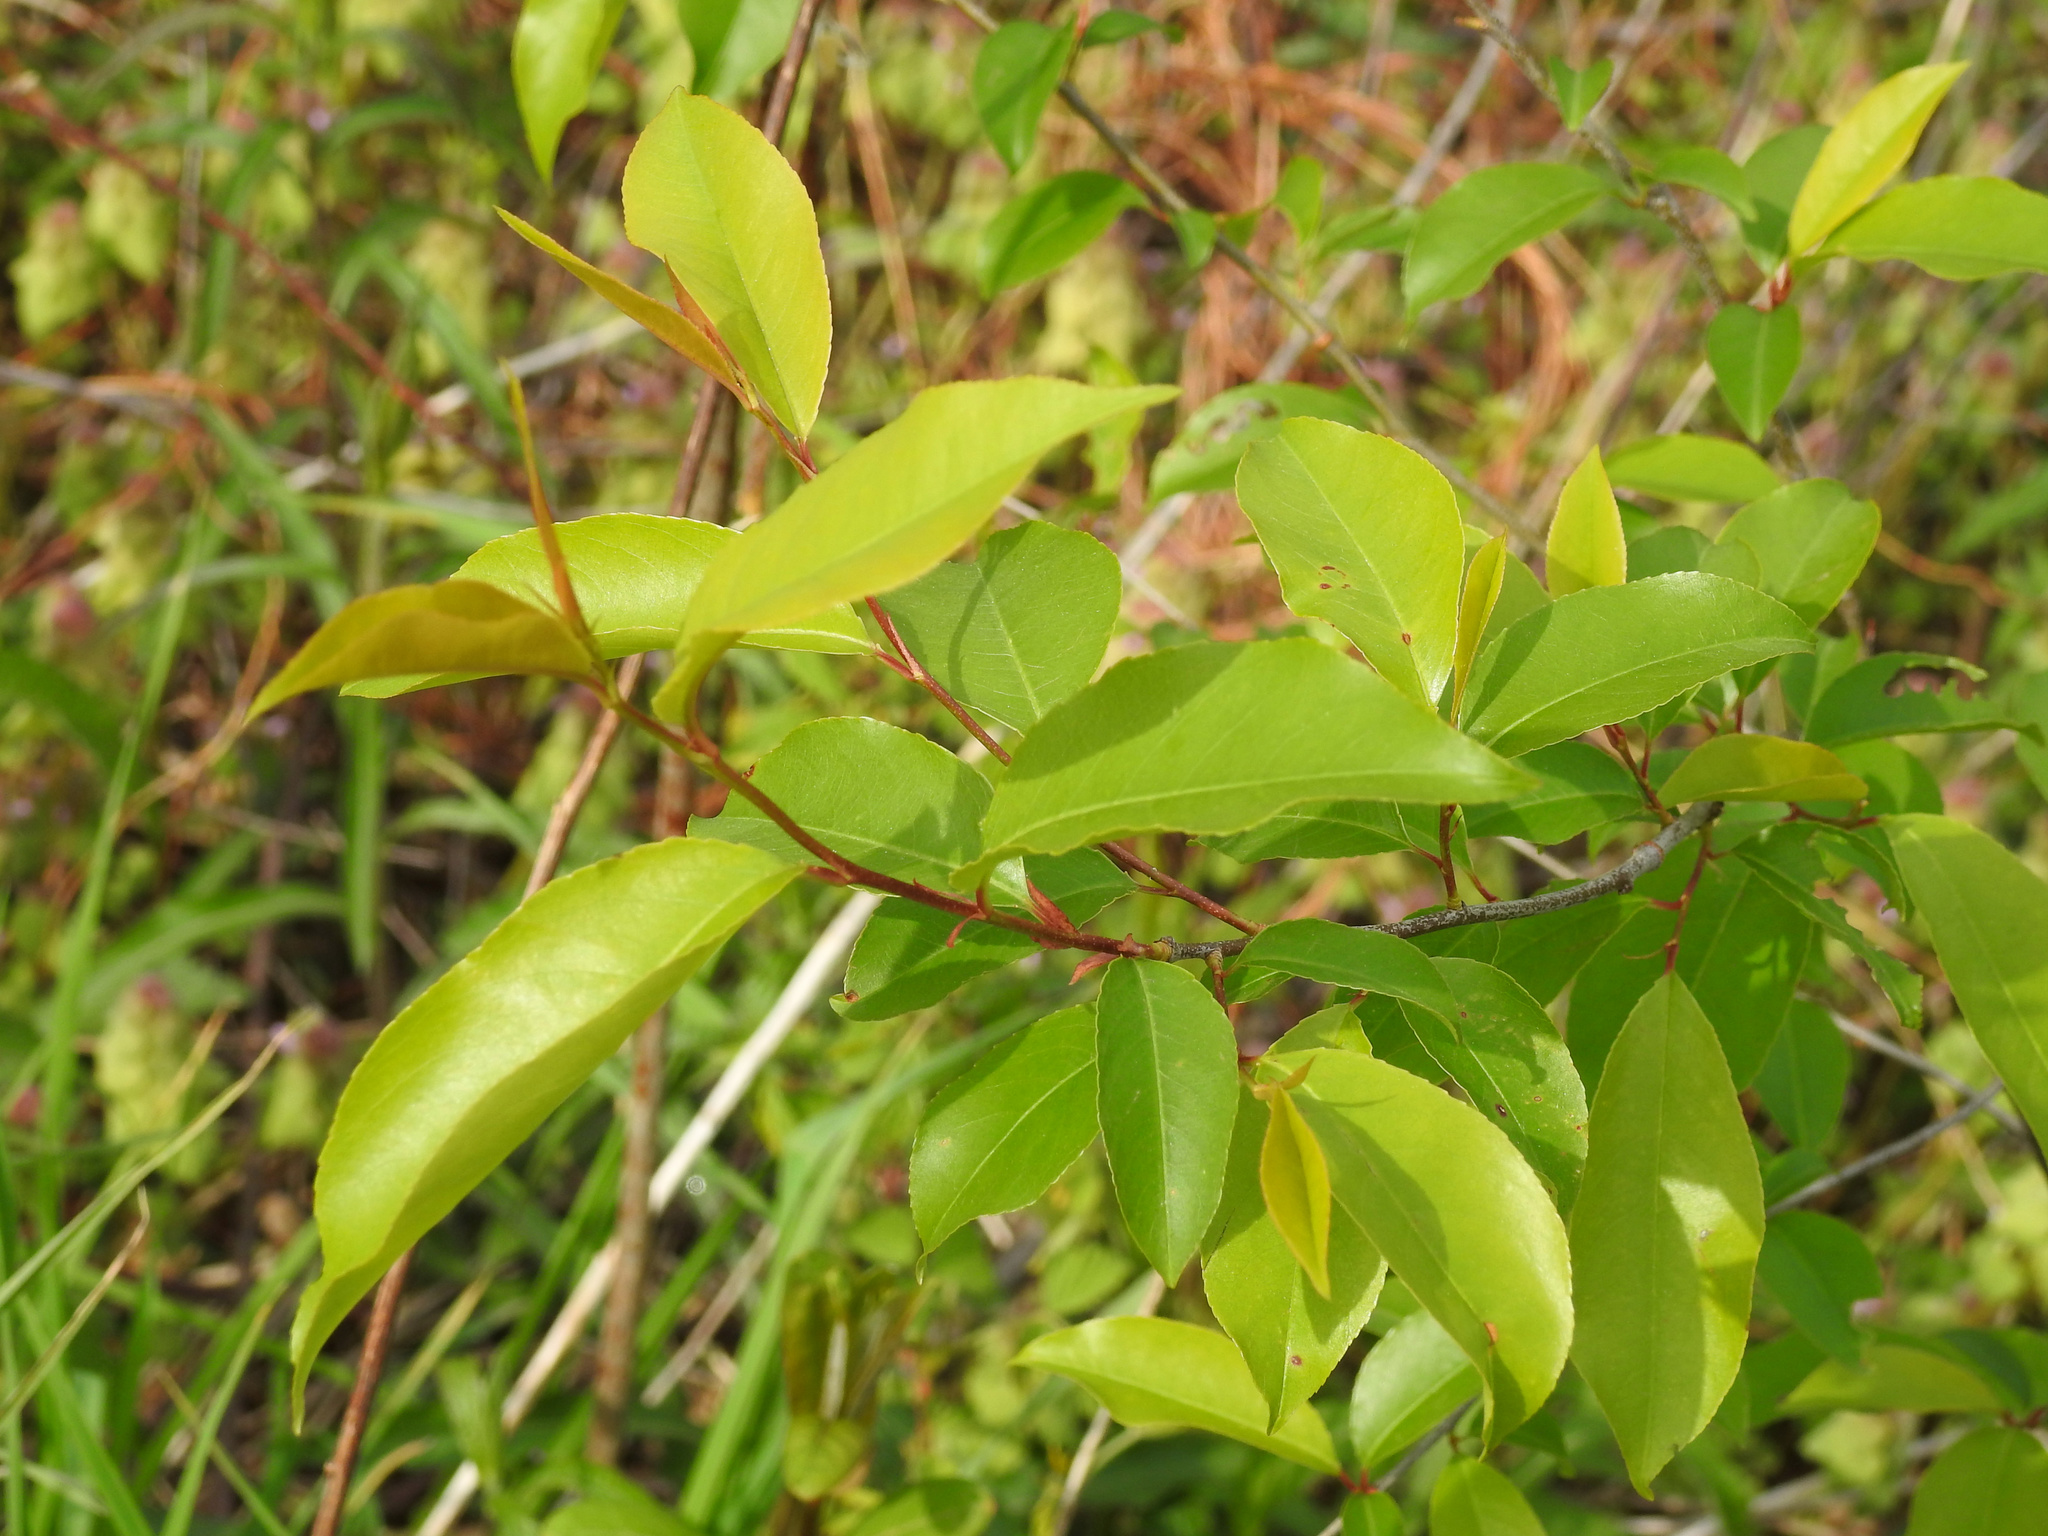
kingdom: Plantae
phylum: Tracheophyta
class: Magnoliopsida
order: Rosales
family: Rosaceae
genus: Prunus
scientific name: Prunus serotina
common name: Black cherry
